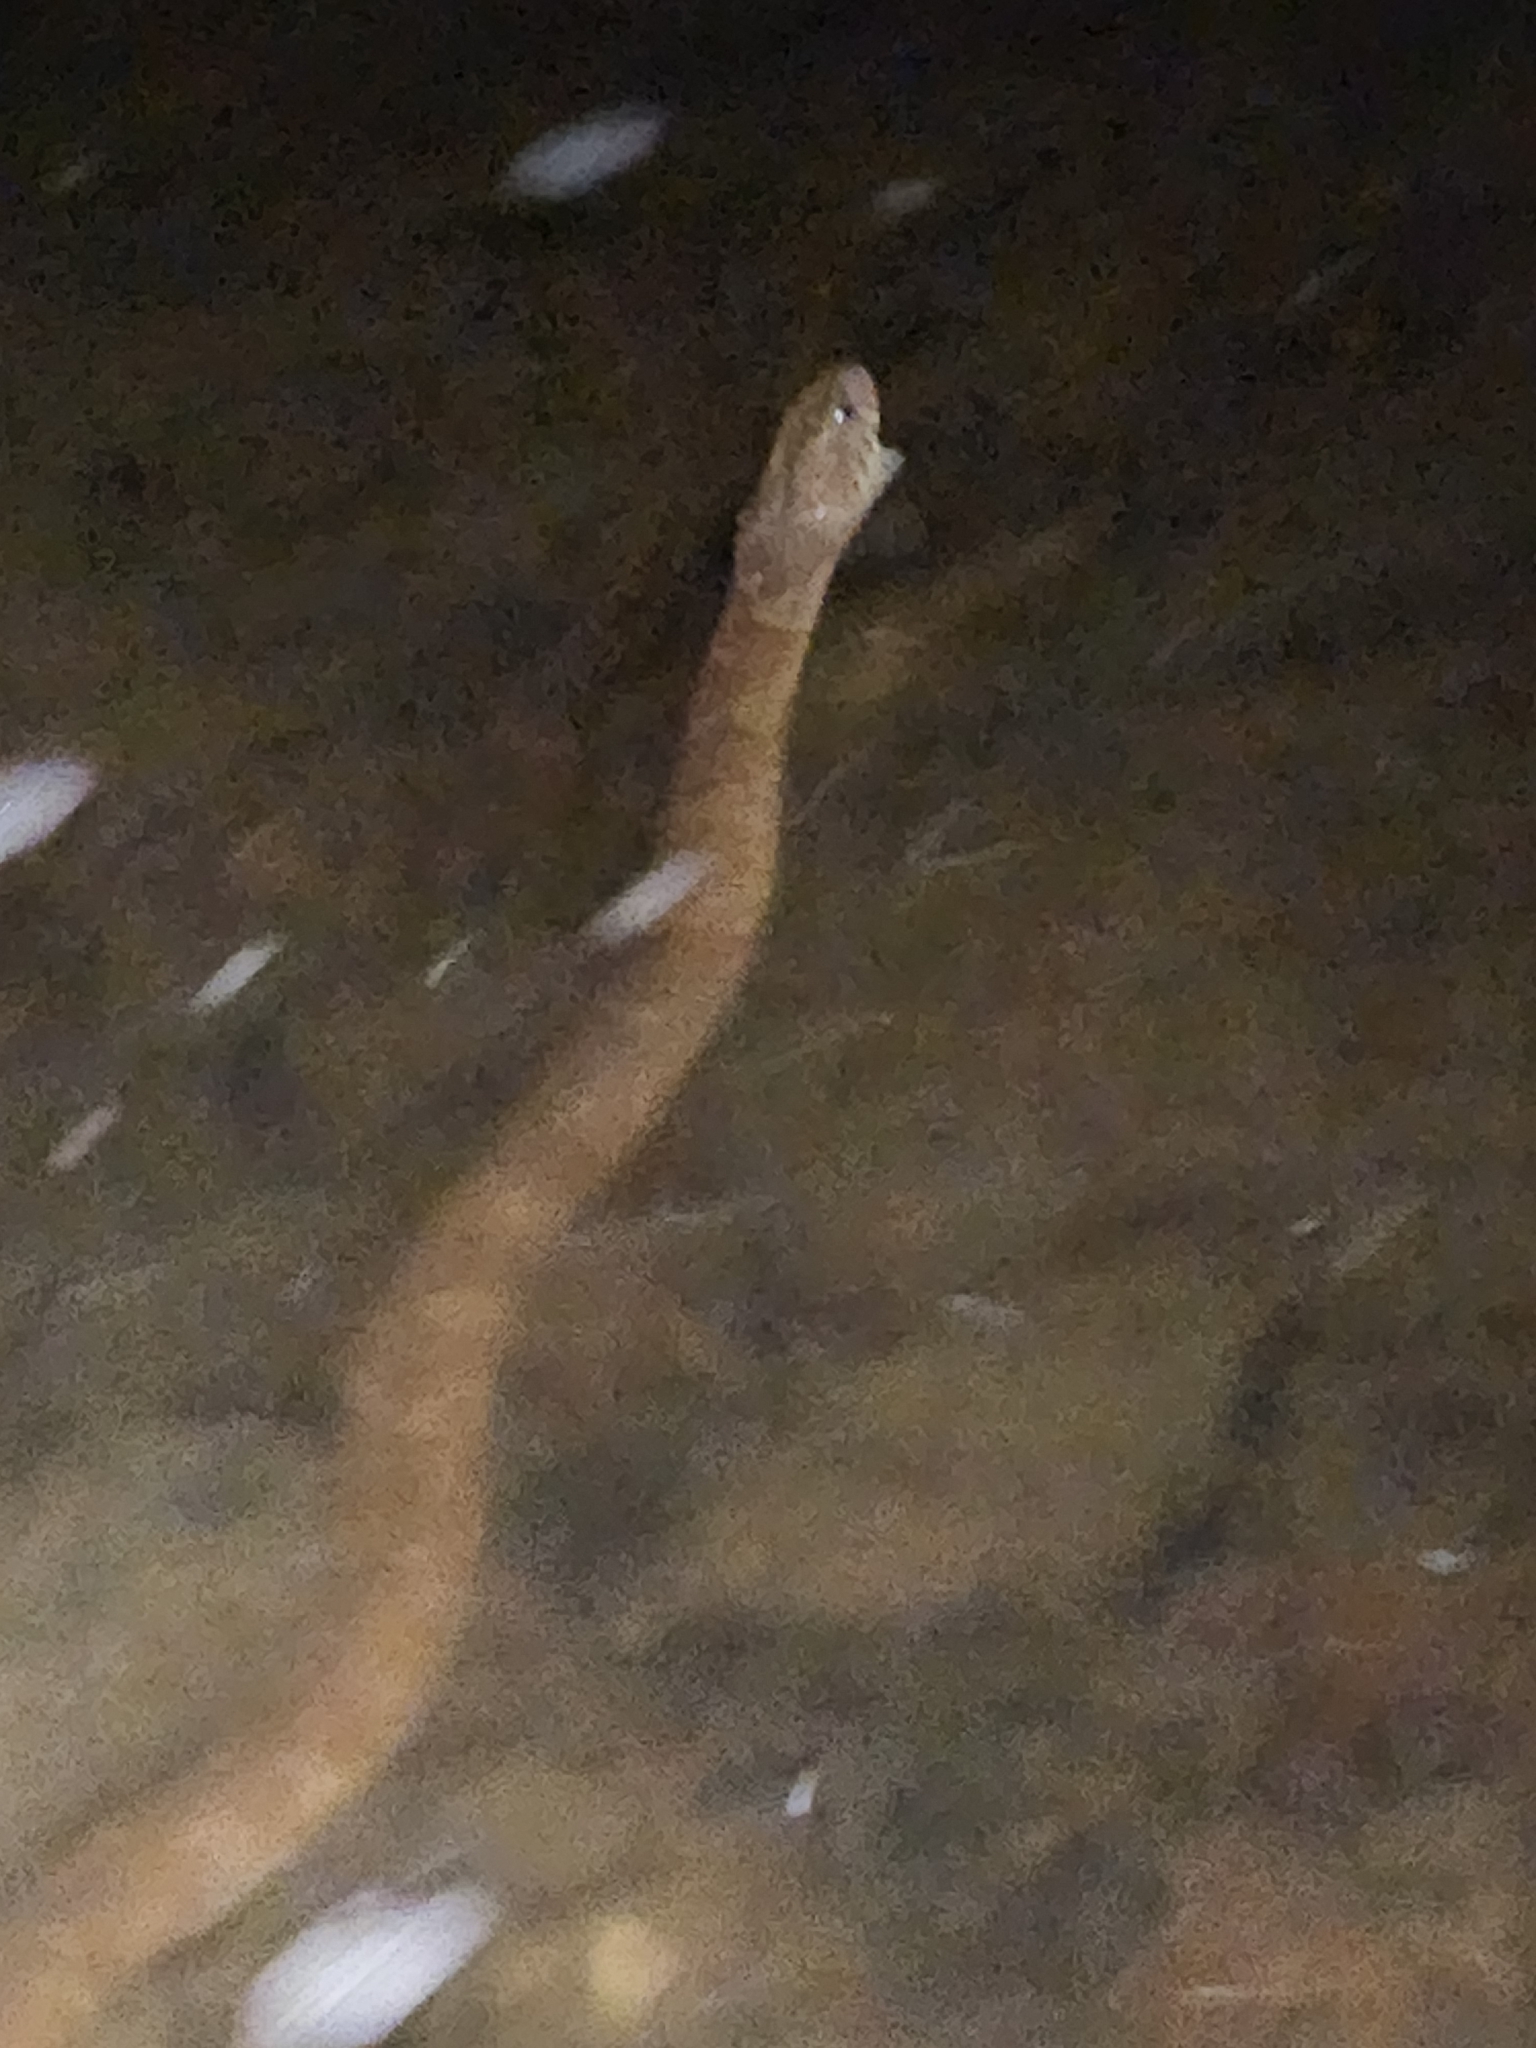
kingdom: Animalia
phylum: Chordata
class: Squamata
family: Colubridae
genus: Nerodia
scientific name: Nerodia sipedon
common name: Northern water snake
